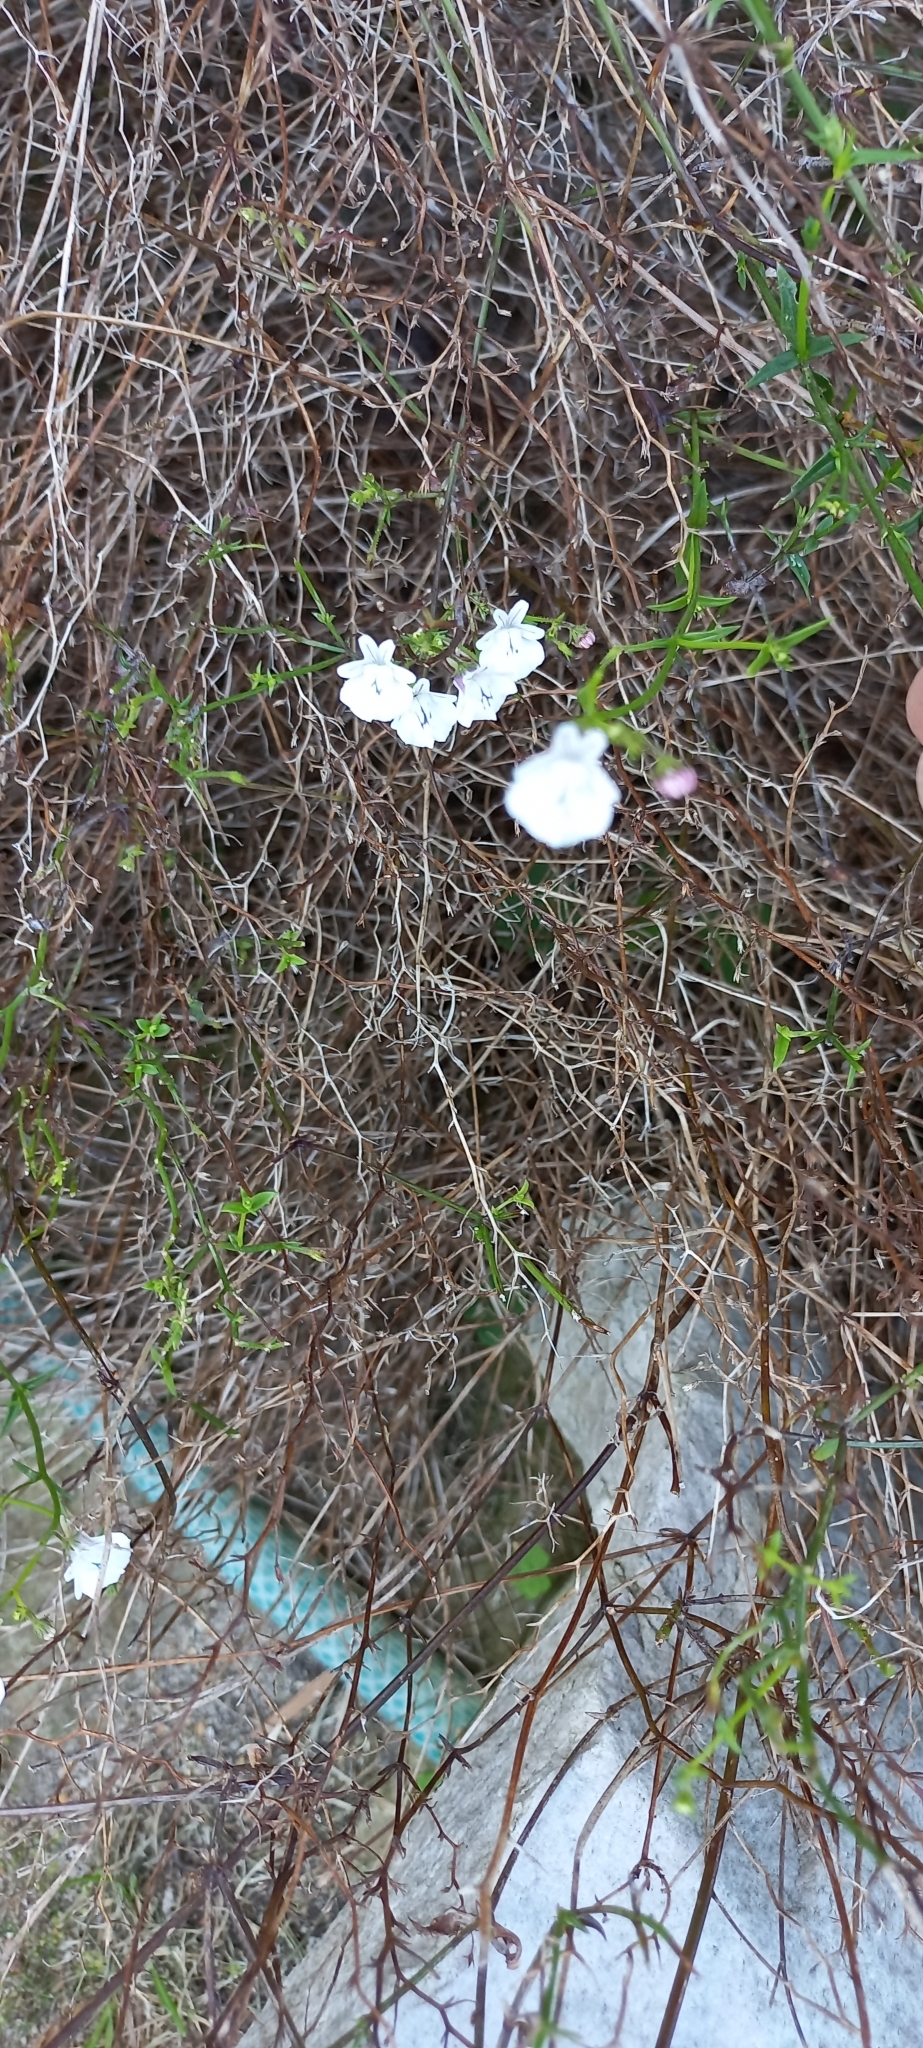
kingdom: Plantae
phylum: Tracheophyta
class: Magnoliopsida
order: Lamiales
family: Scrophulariaceae
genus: Nemesia
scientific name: Nemesia diffusa
